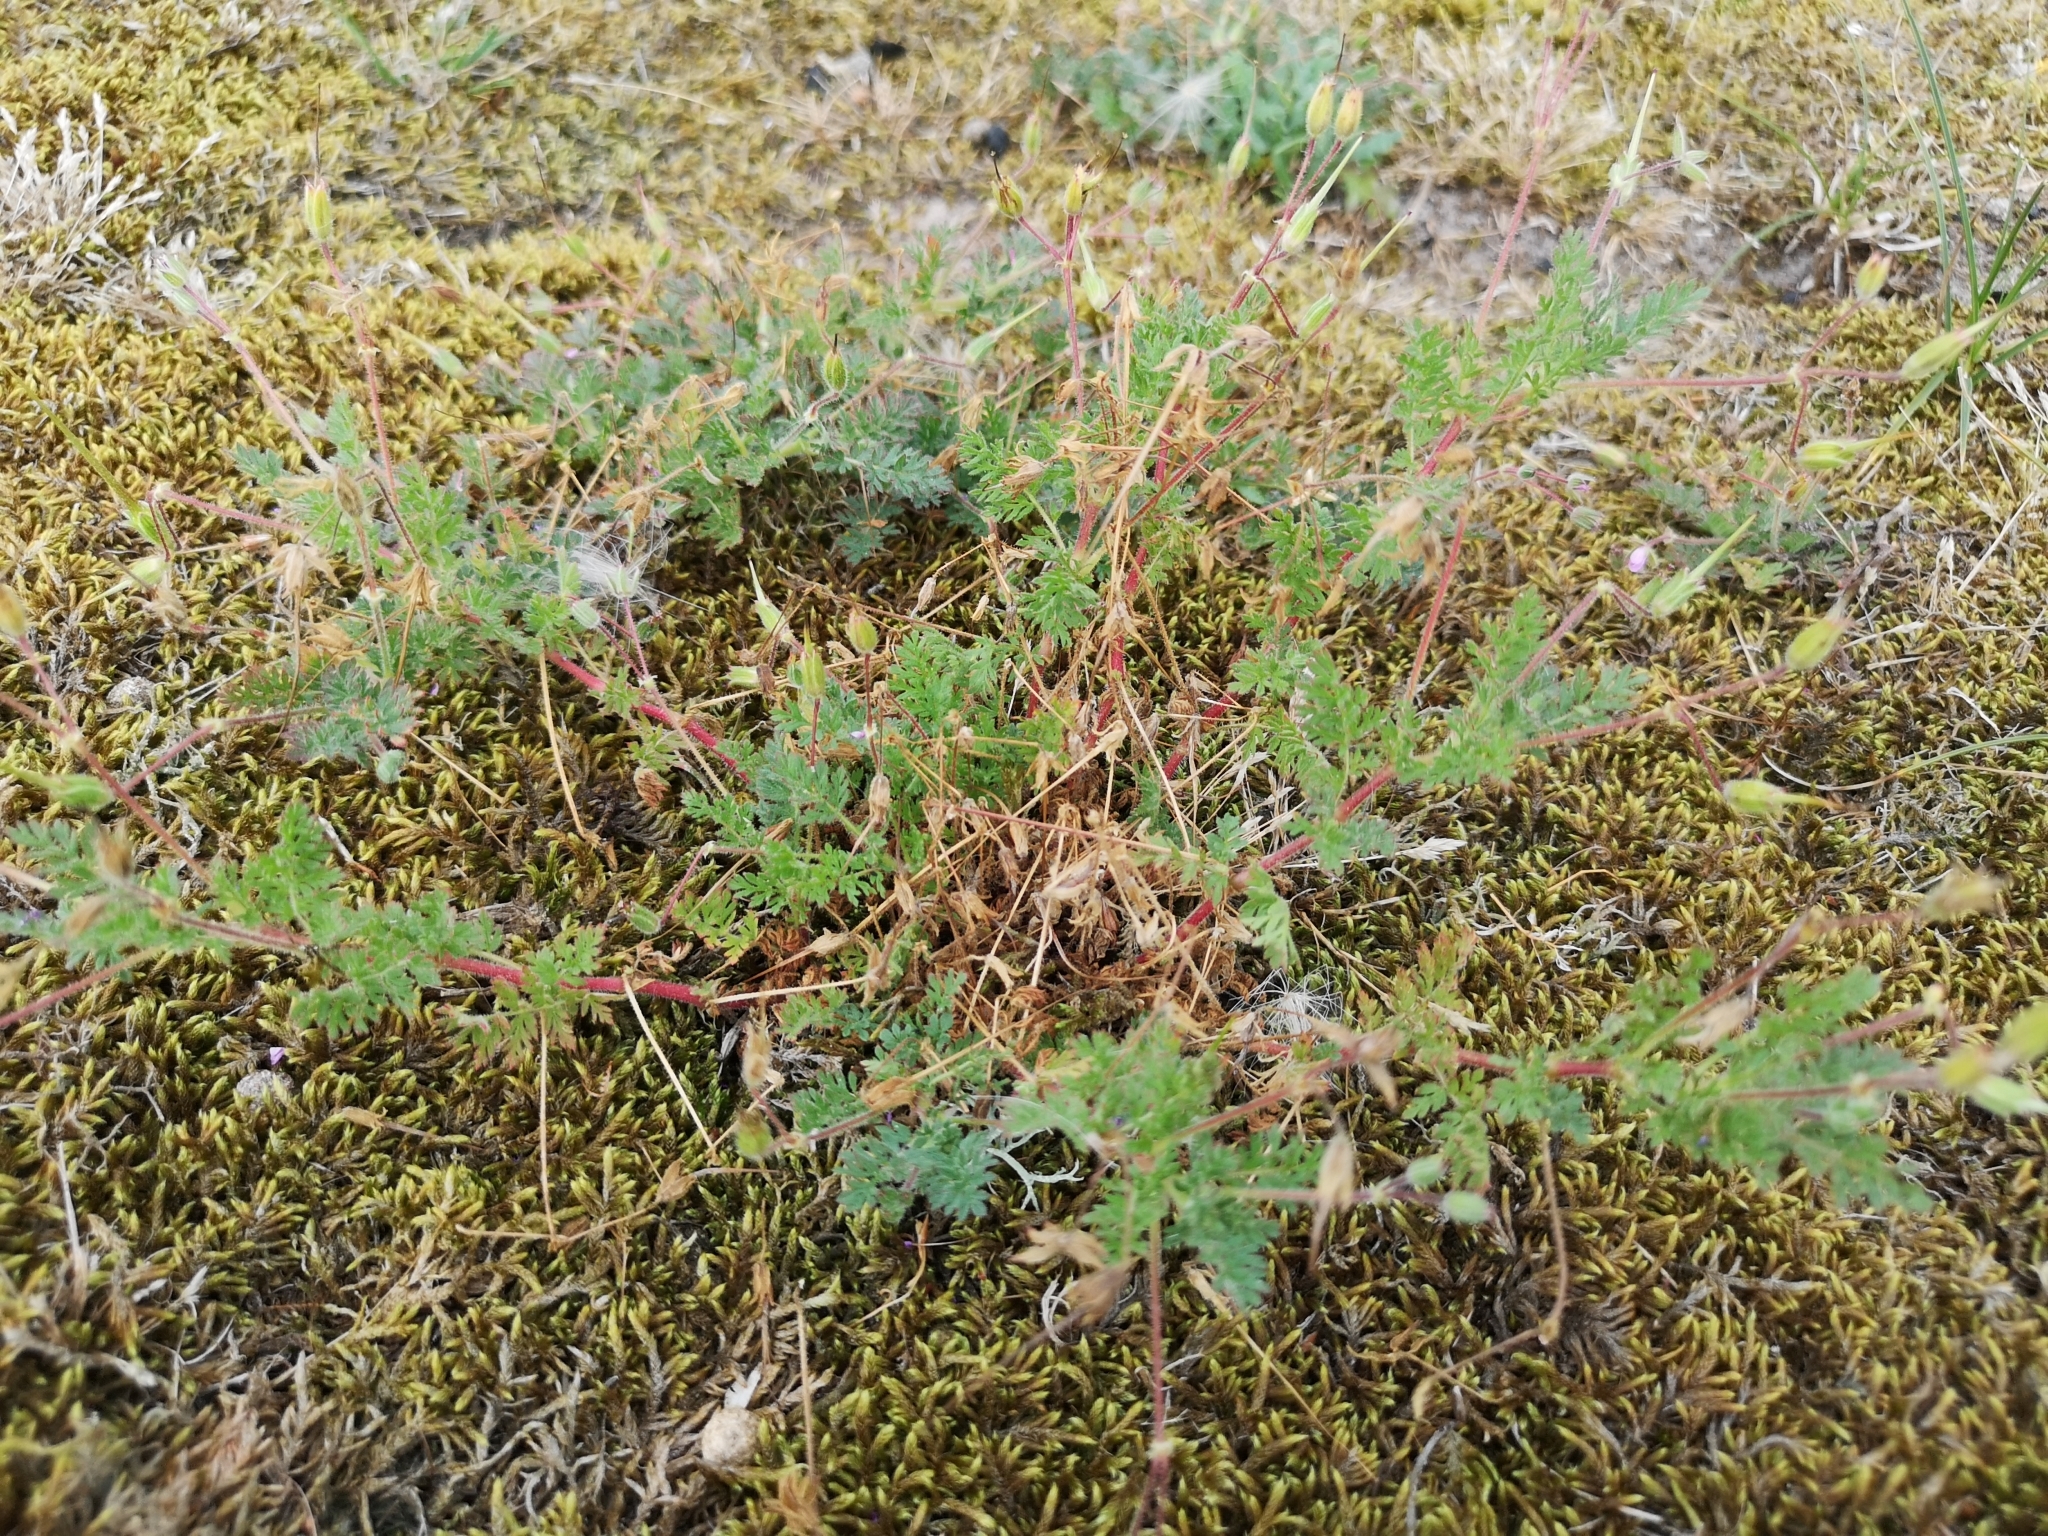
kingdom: Plantae
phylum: Tracheophyta
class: Magnoliopsida
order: Geraniales
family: Geraniaceae
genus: Erodium
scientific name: Erodium cicutarium
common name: Common stork's-bill
